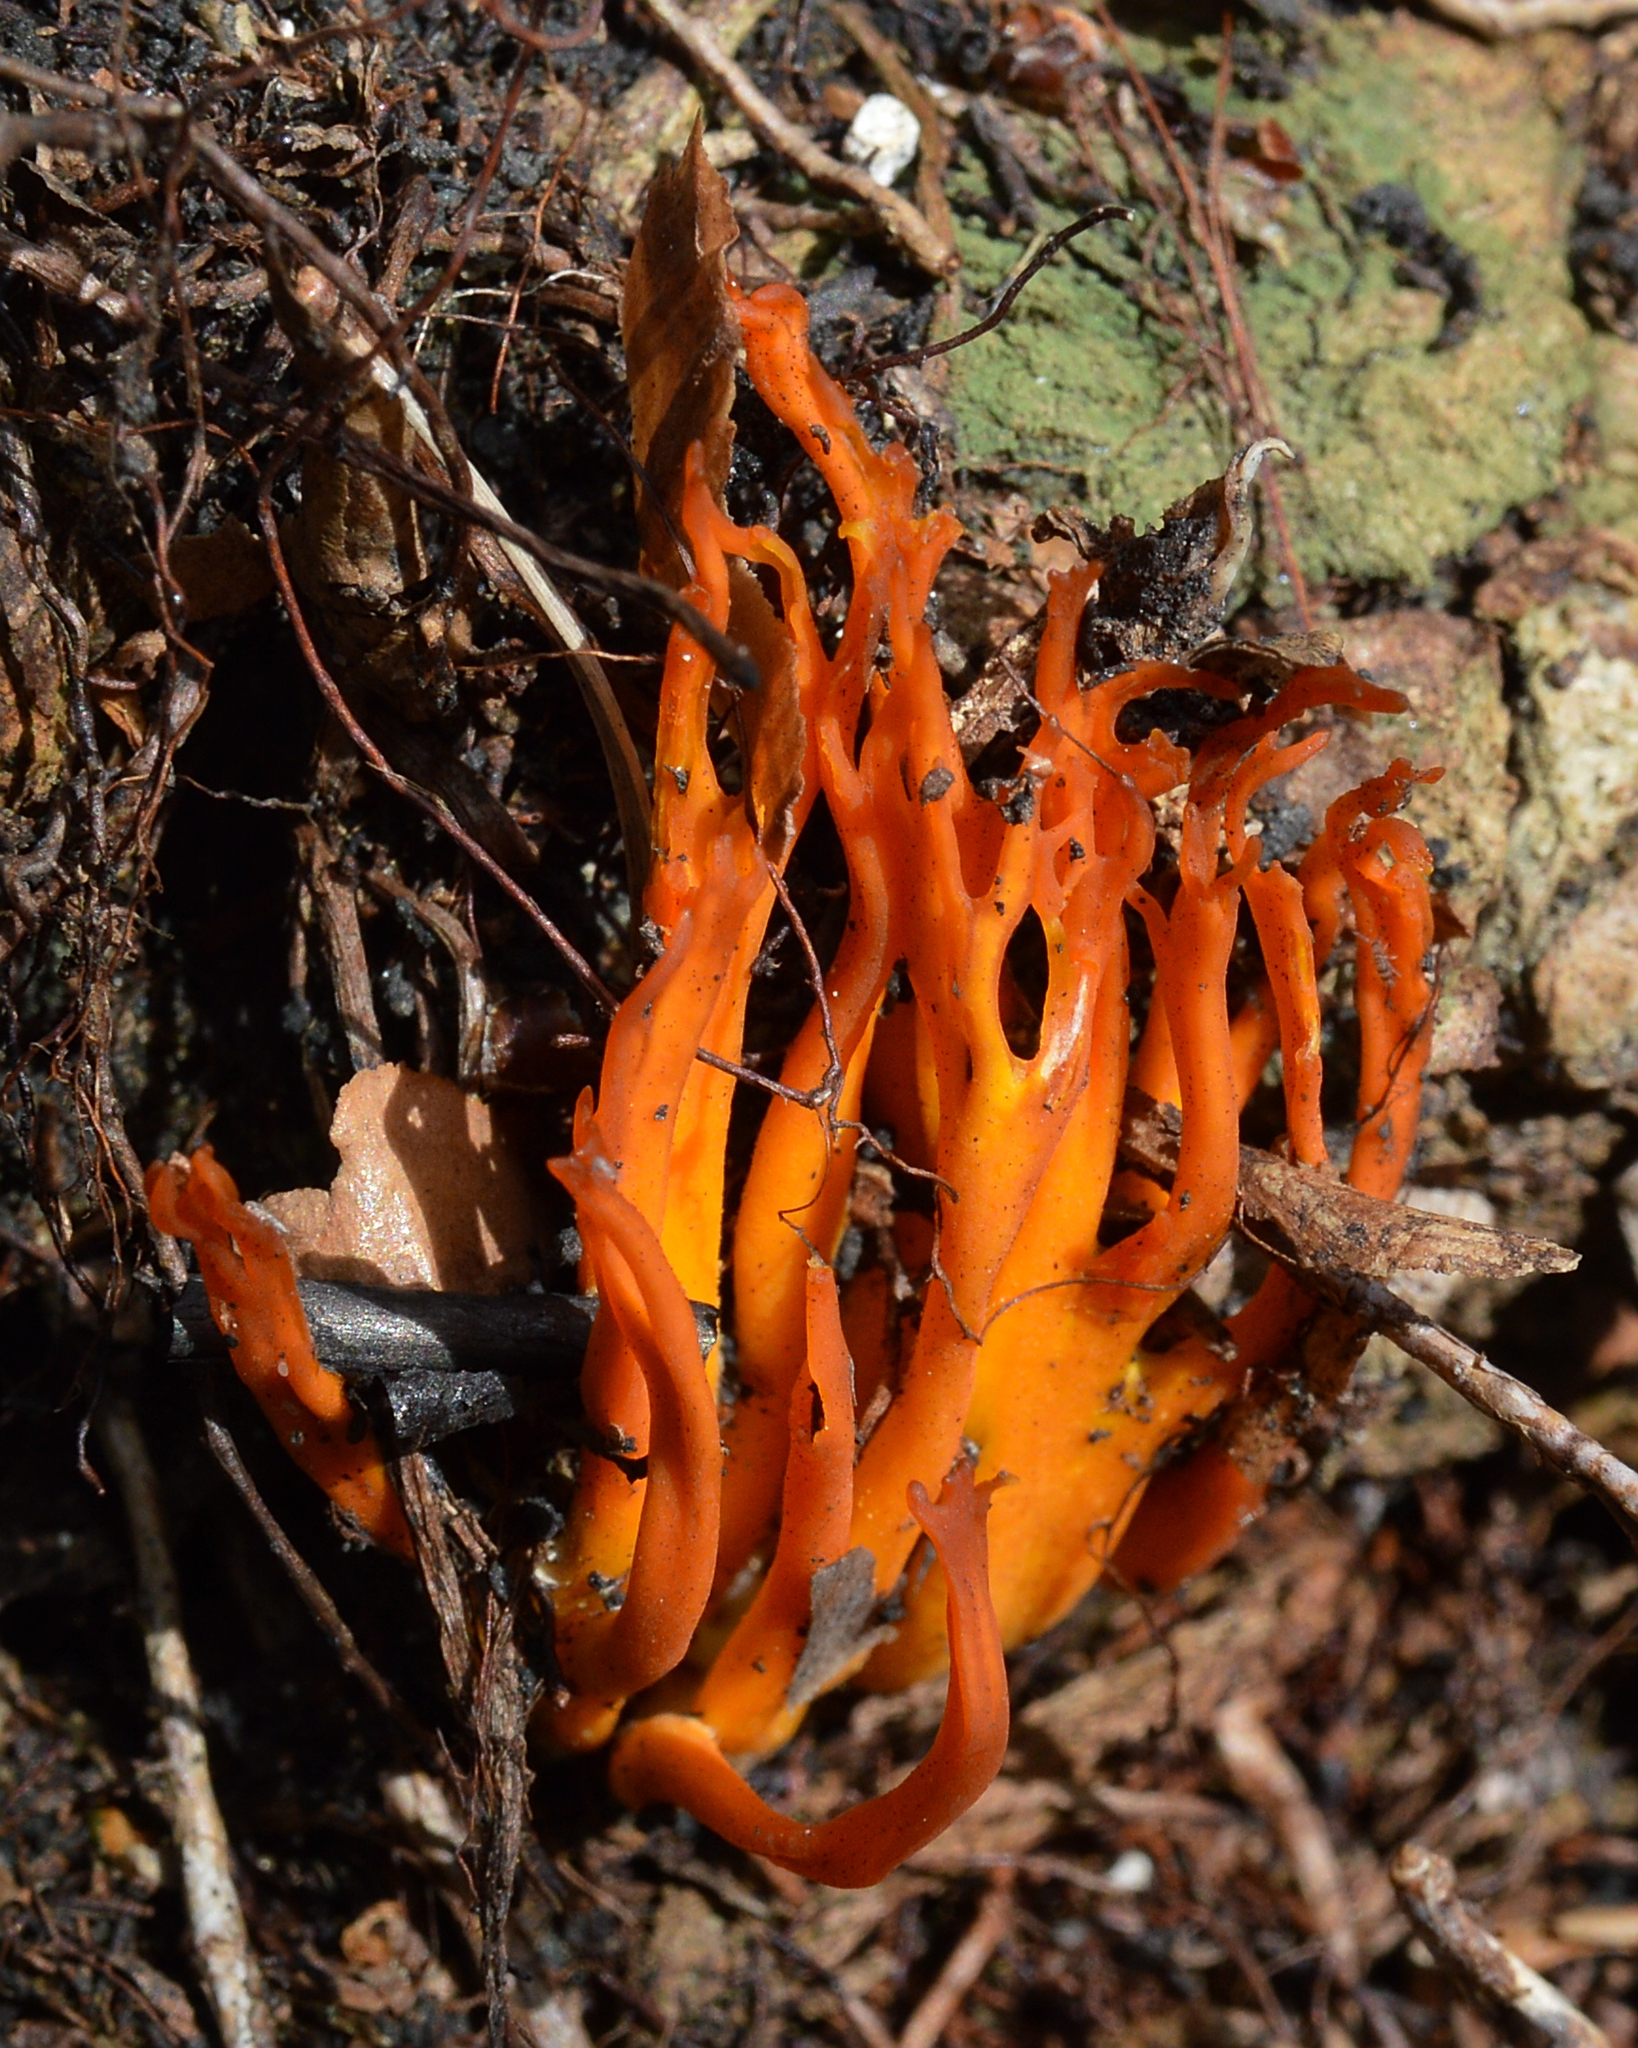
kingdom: Fungi
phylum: Basidiomycota
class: Dacrymycetes
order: Dacrymycetales
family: Dacrymycetaceae
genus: Calocera
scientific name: Calocera viscosa
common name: Yellow stagshorn
